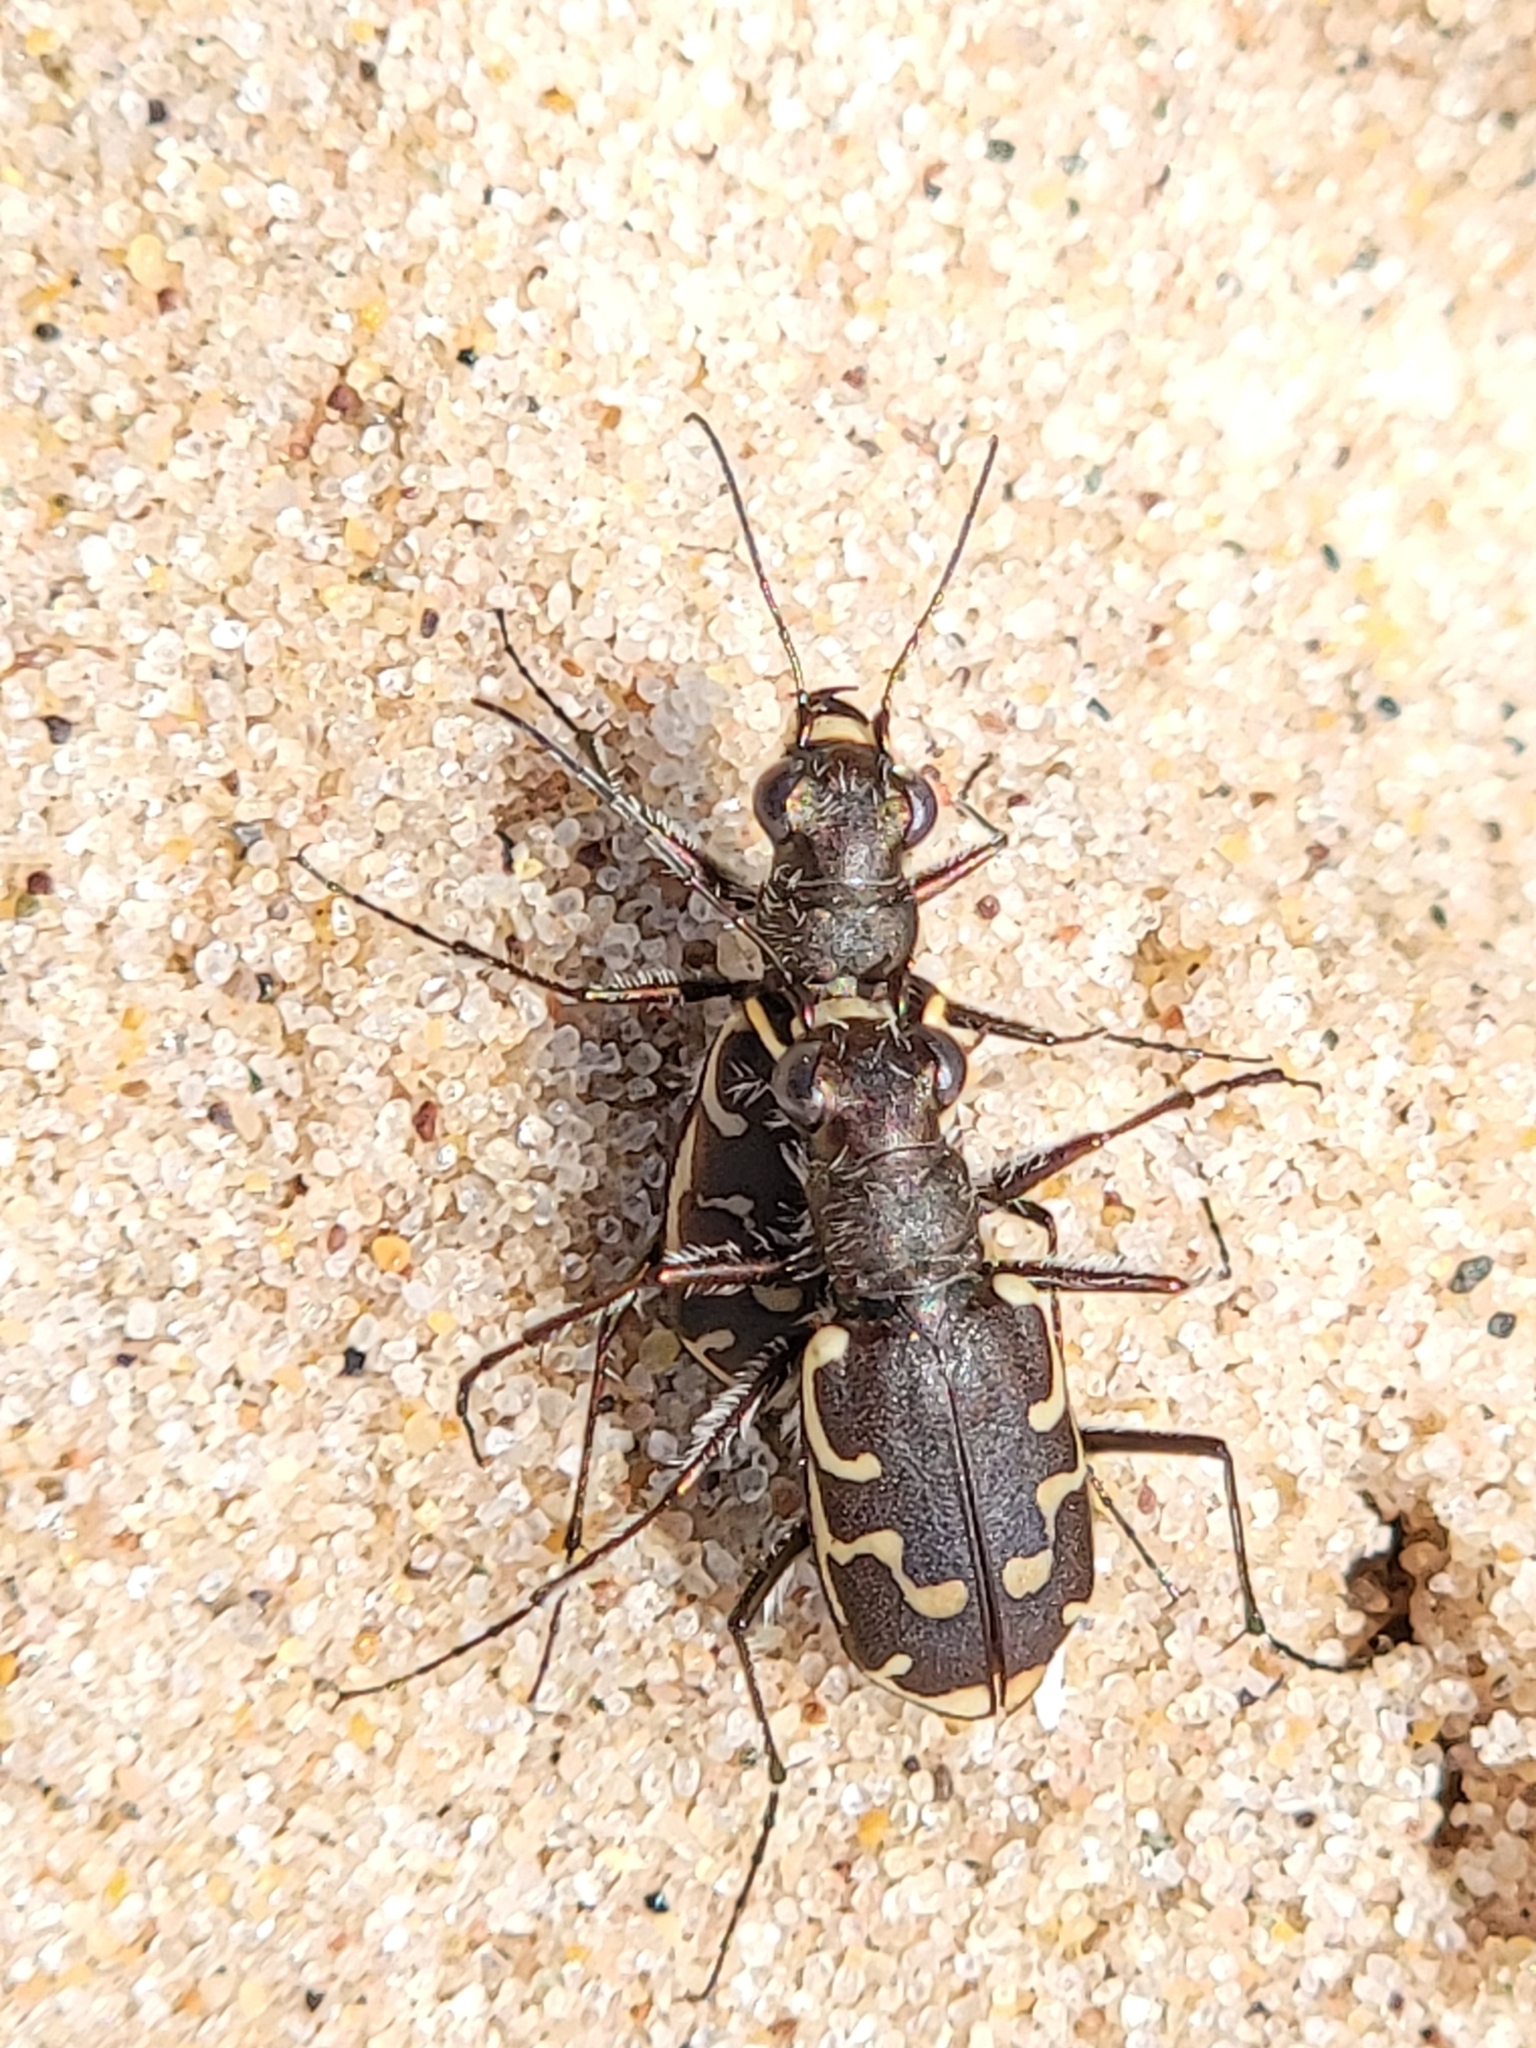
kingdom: Animalia
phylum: Arthropoda
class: Insecta
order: Coleoptera
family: Carabidae
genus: Cicindela
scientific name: Cicindela repanda
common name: Bronzed tiger beetle
